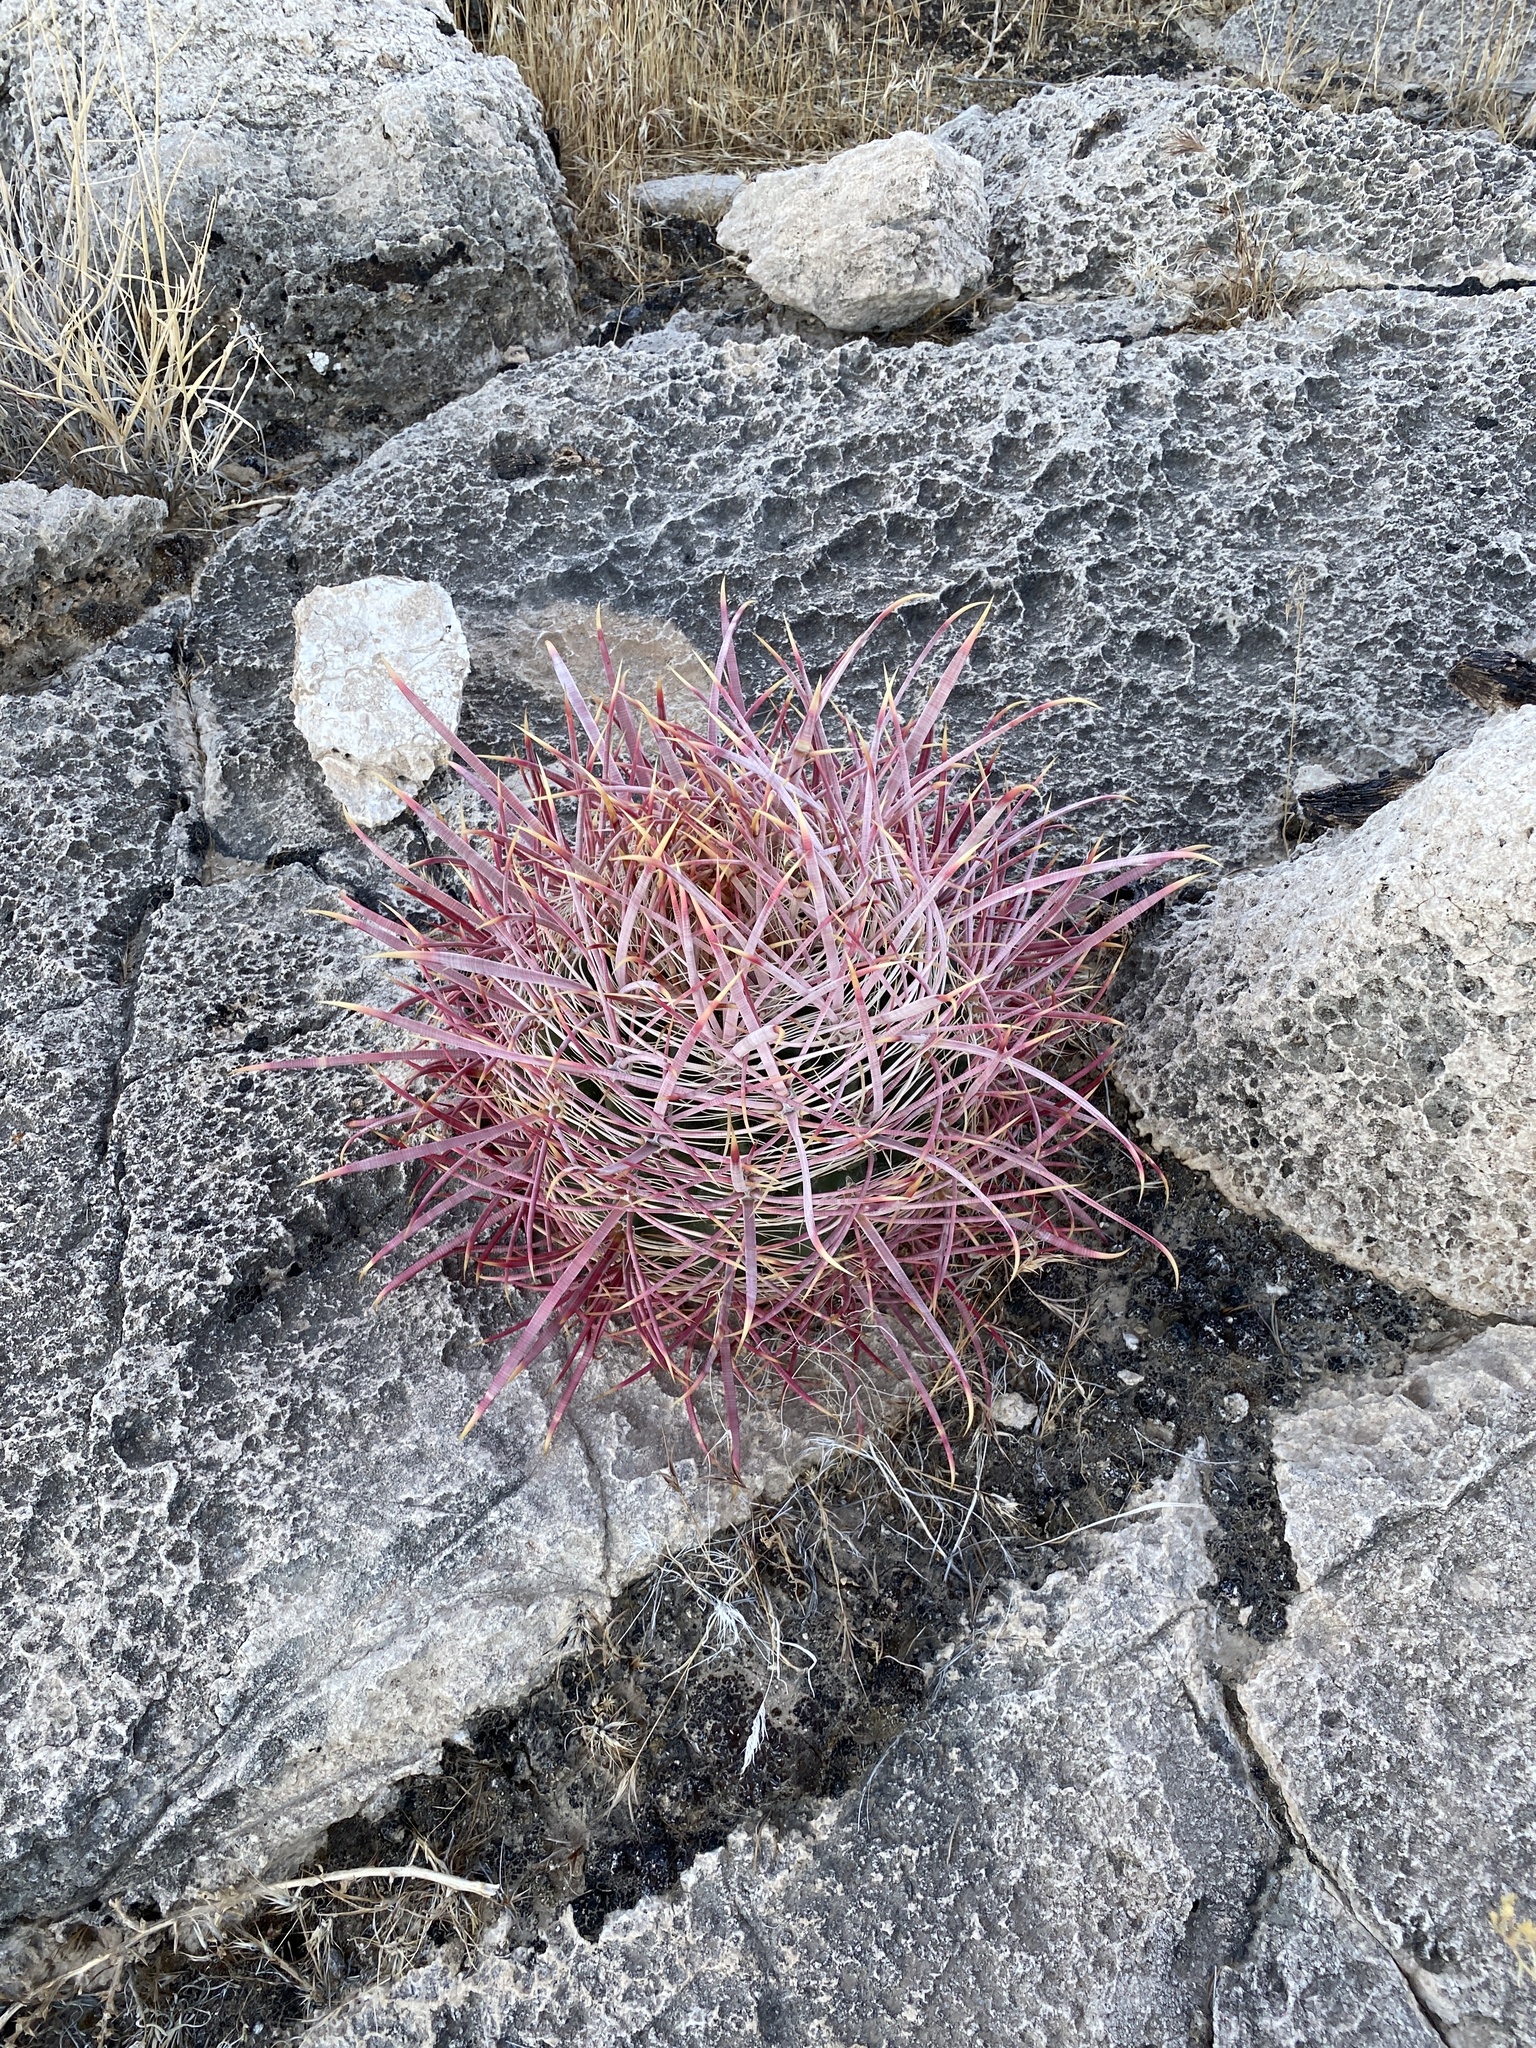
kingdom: Plantae
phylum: Tracheophyta
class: Magnoliopsida
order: Caryophyllales
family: Cactaceae
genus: Ferocactus
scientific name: Ferocactus cylindraceus
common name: California barrel cactus
